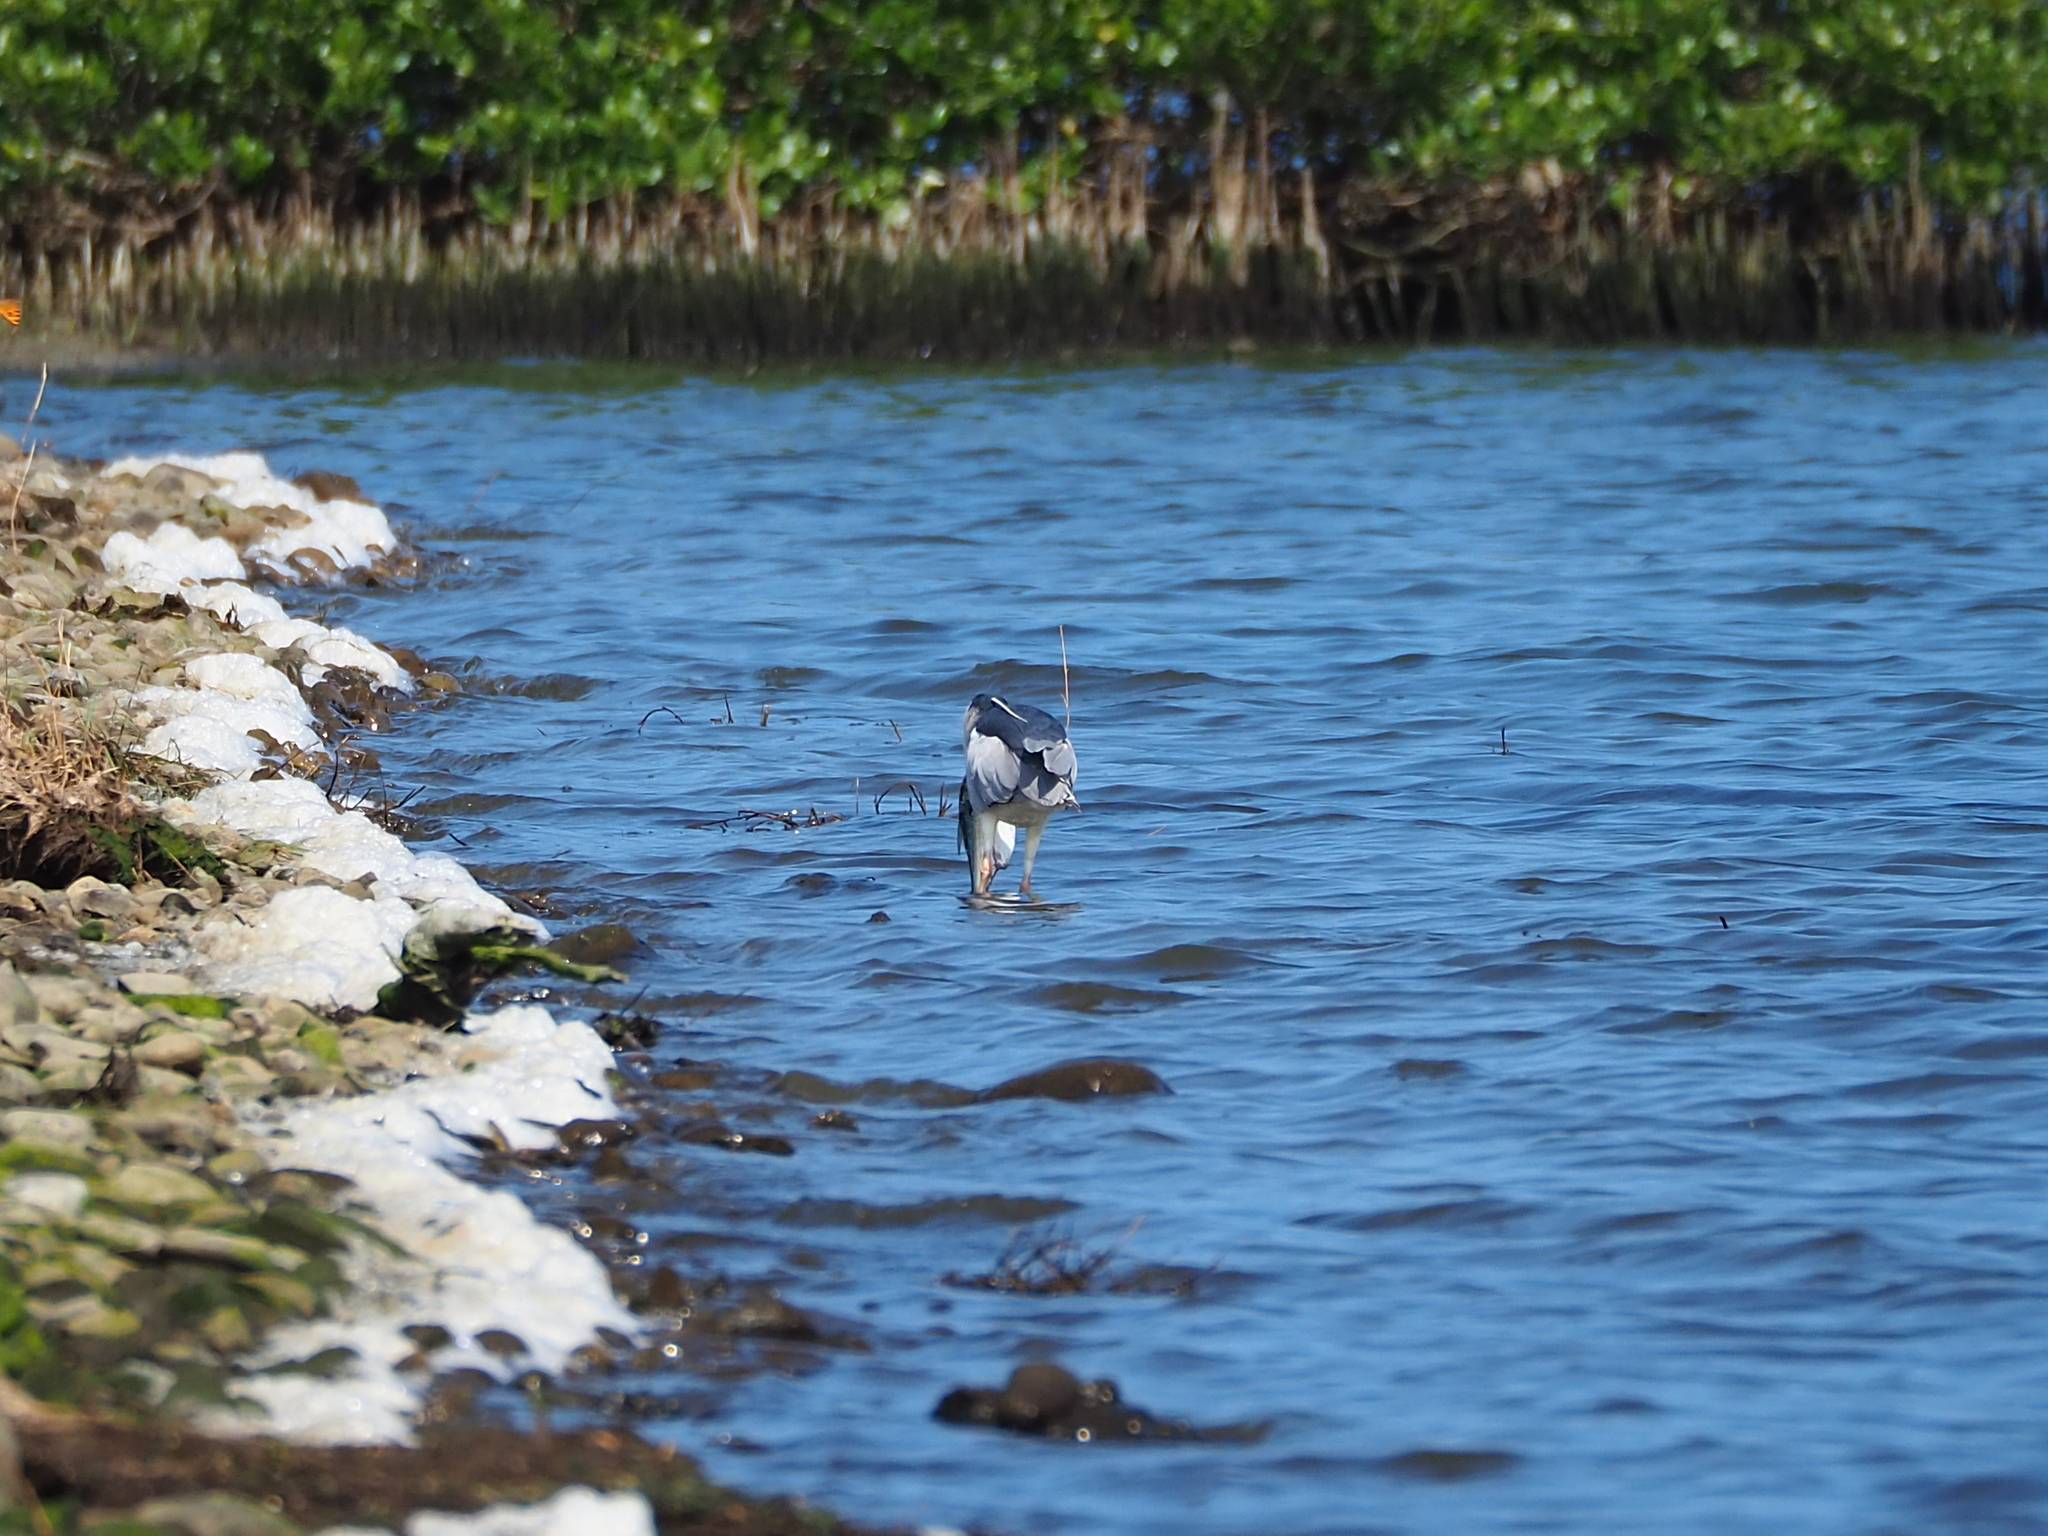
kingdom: Animalia
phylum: Chordata
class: Aves
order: Pelecaniformes
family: Ardeidae
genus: Nycticorax
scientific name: Nycticorax nycticorax
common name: Black-crowned night heron
